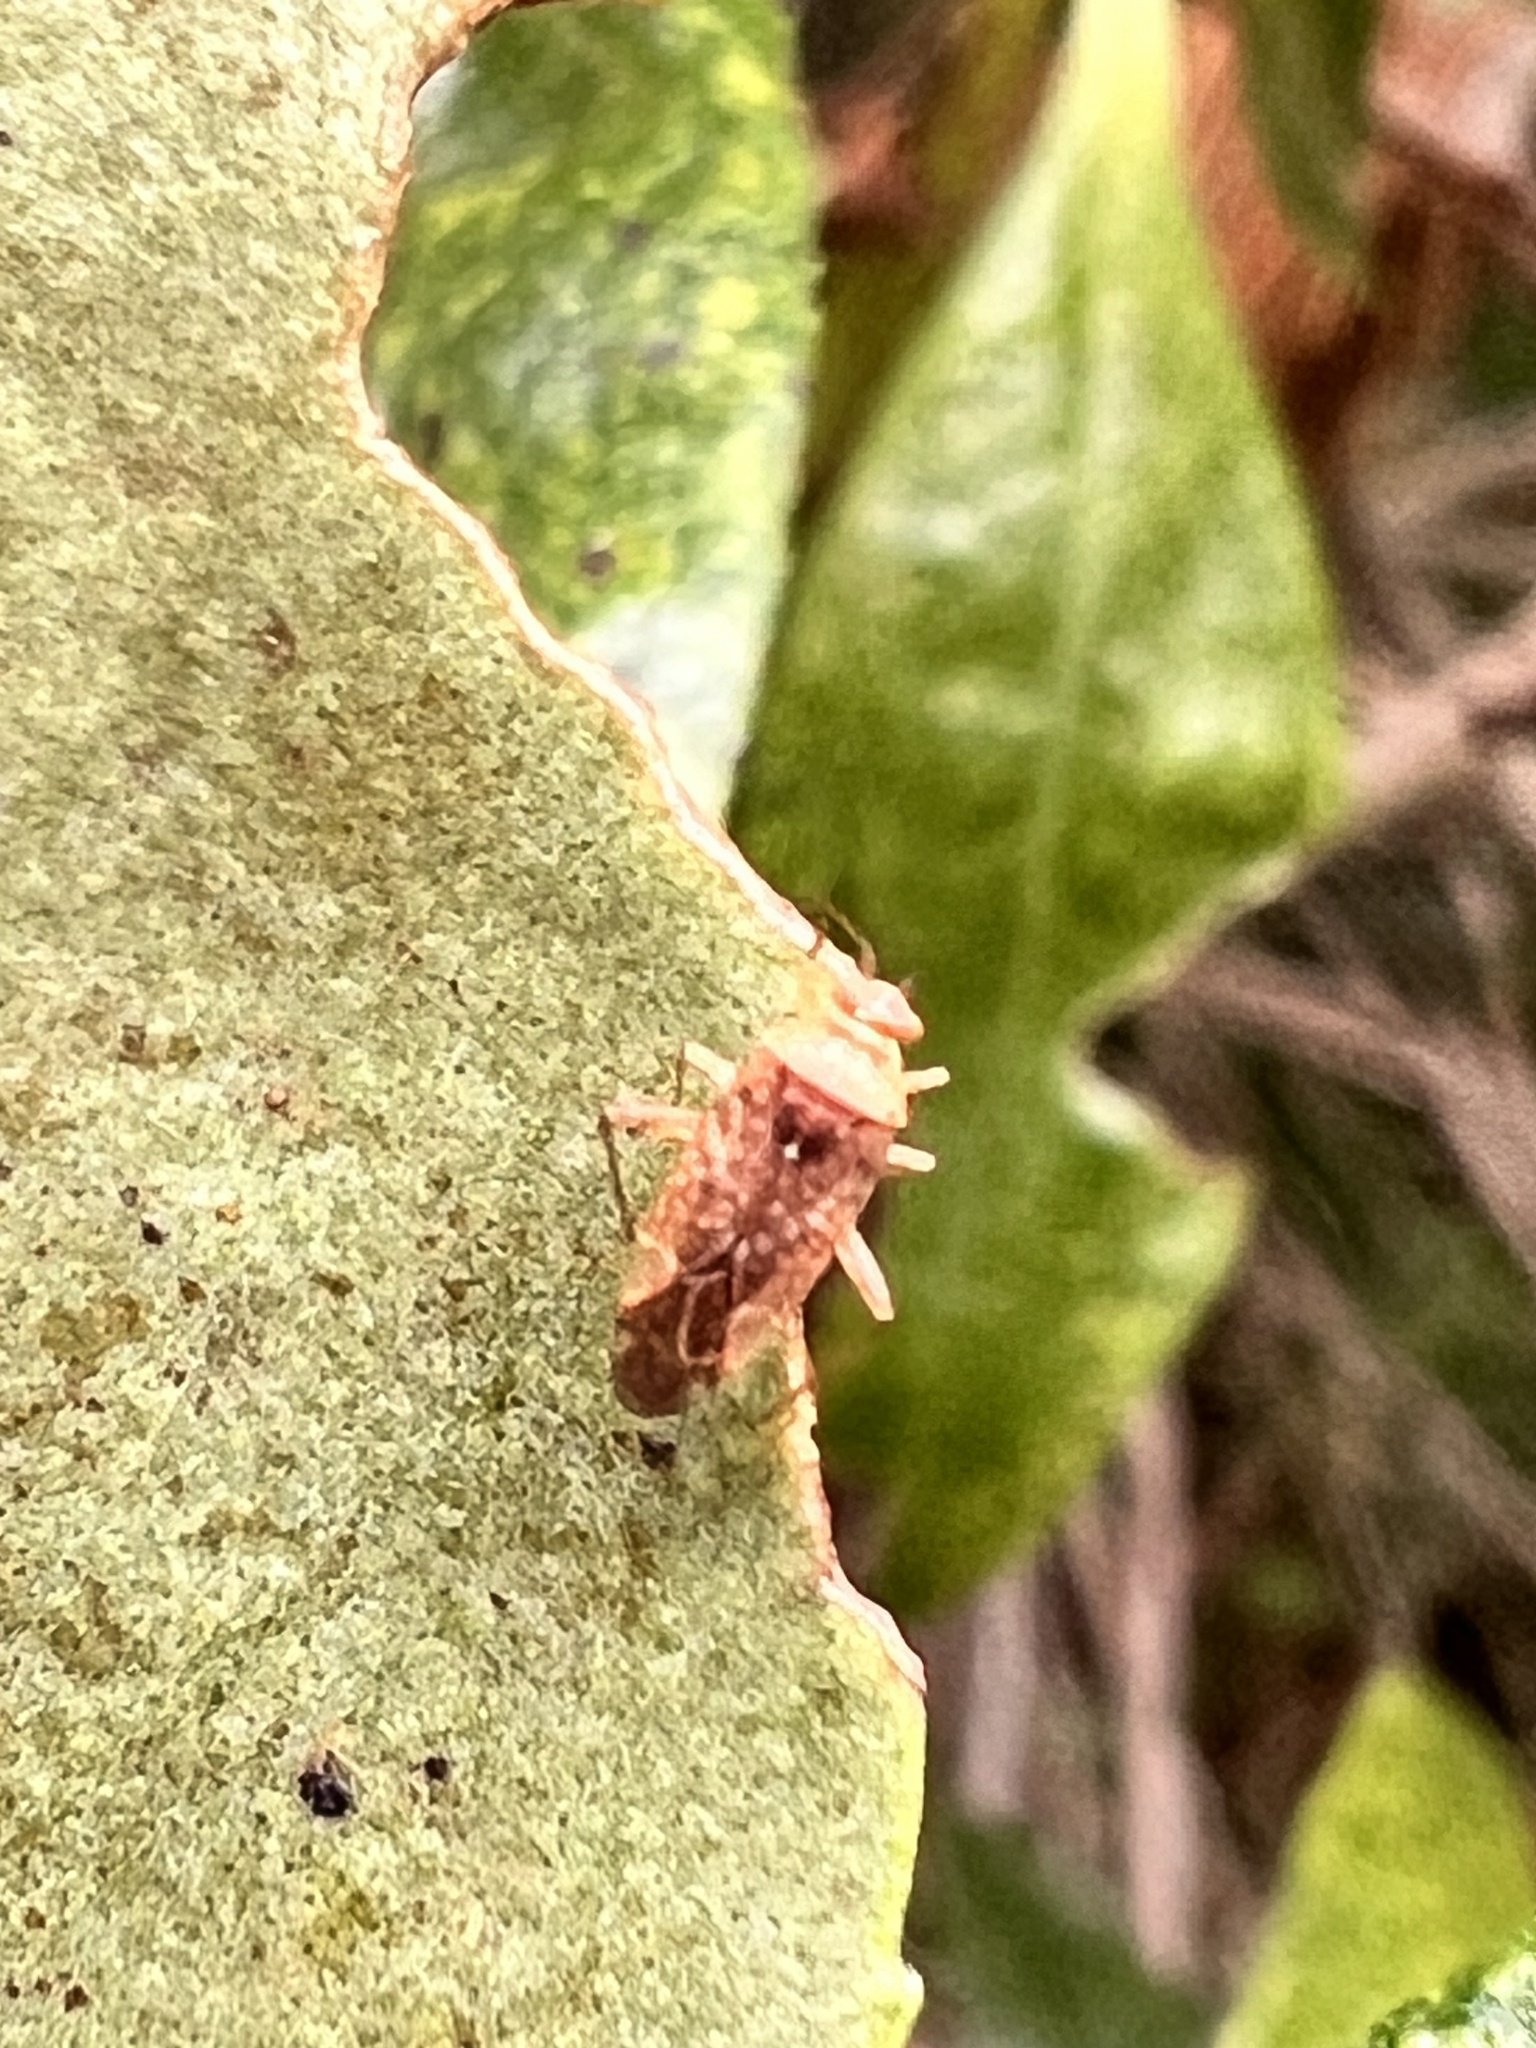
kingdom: Animalia
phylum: Arthropoda
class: Insecta
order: Hemiptera
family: Miridae
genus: Chinamiris
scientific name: Chinamiris aurantiacus
